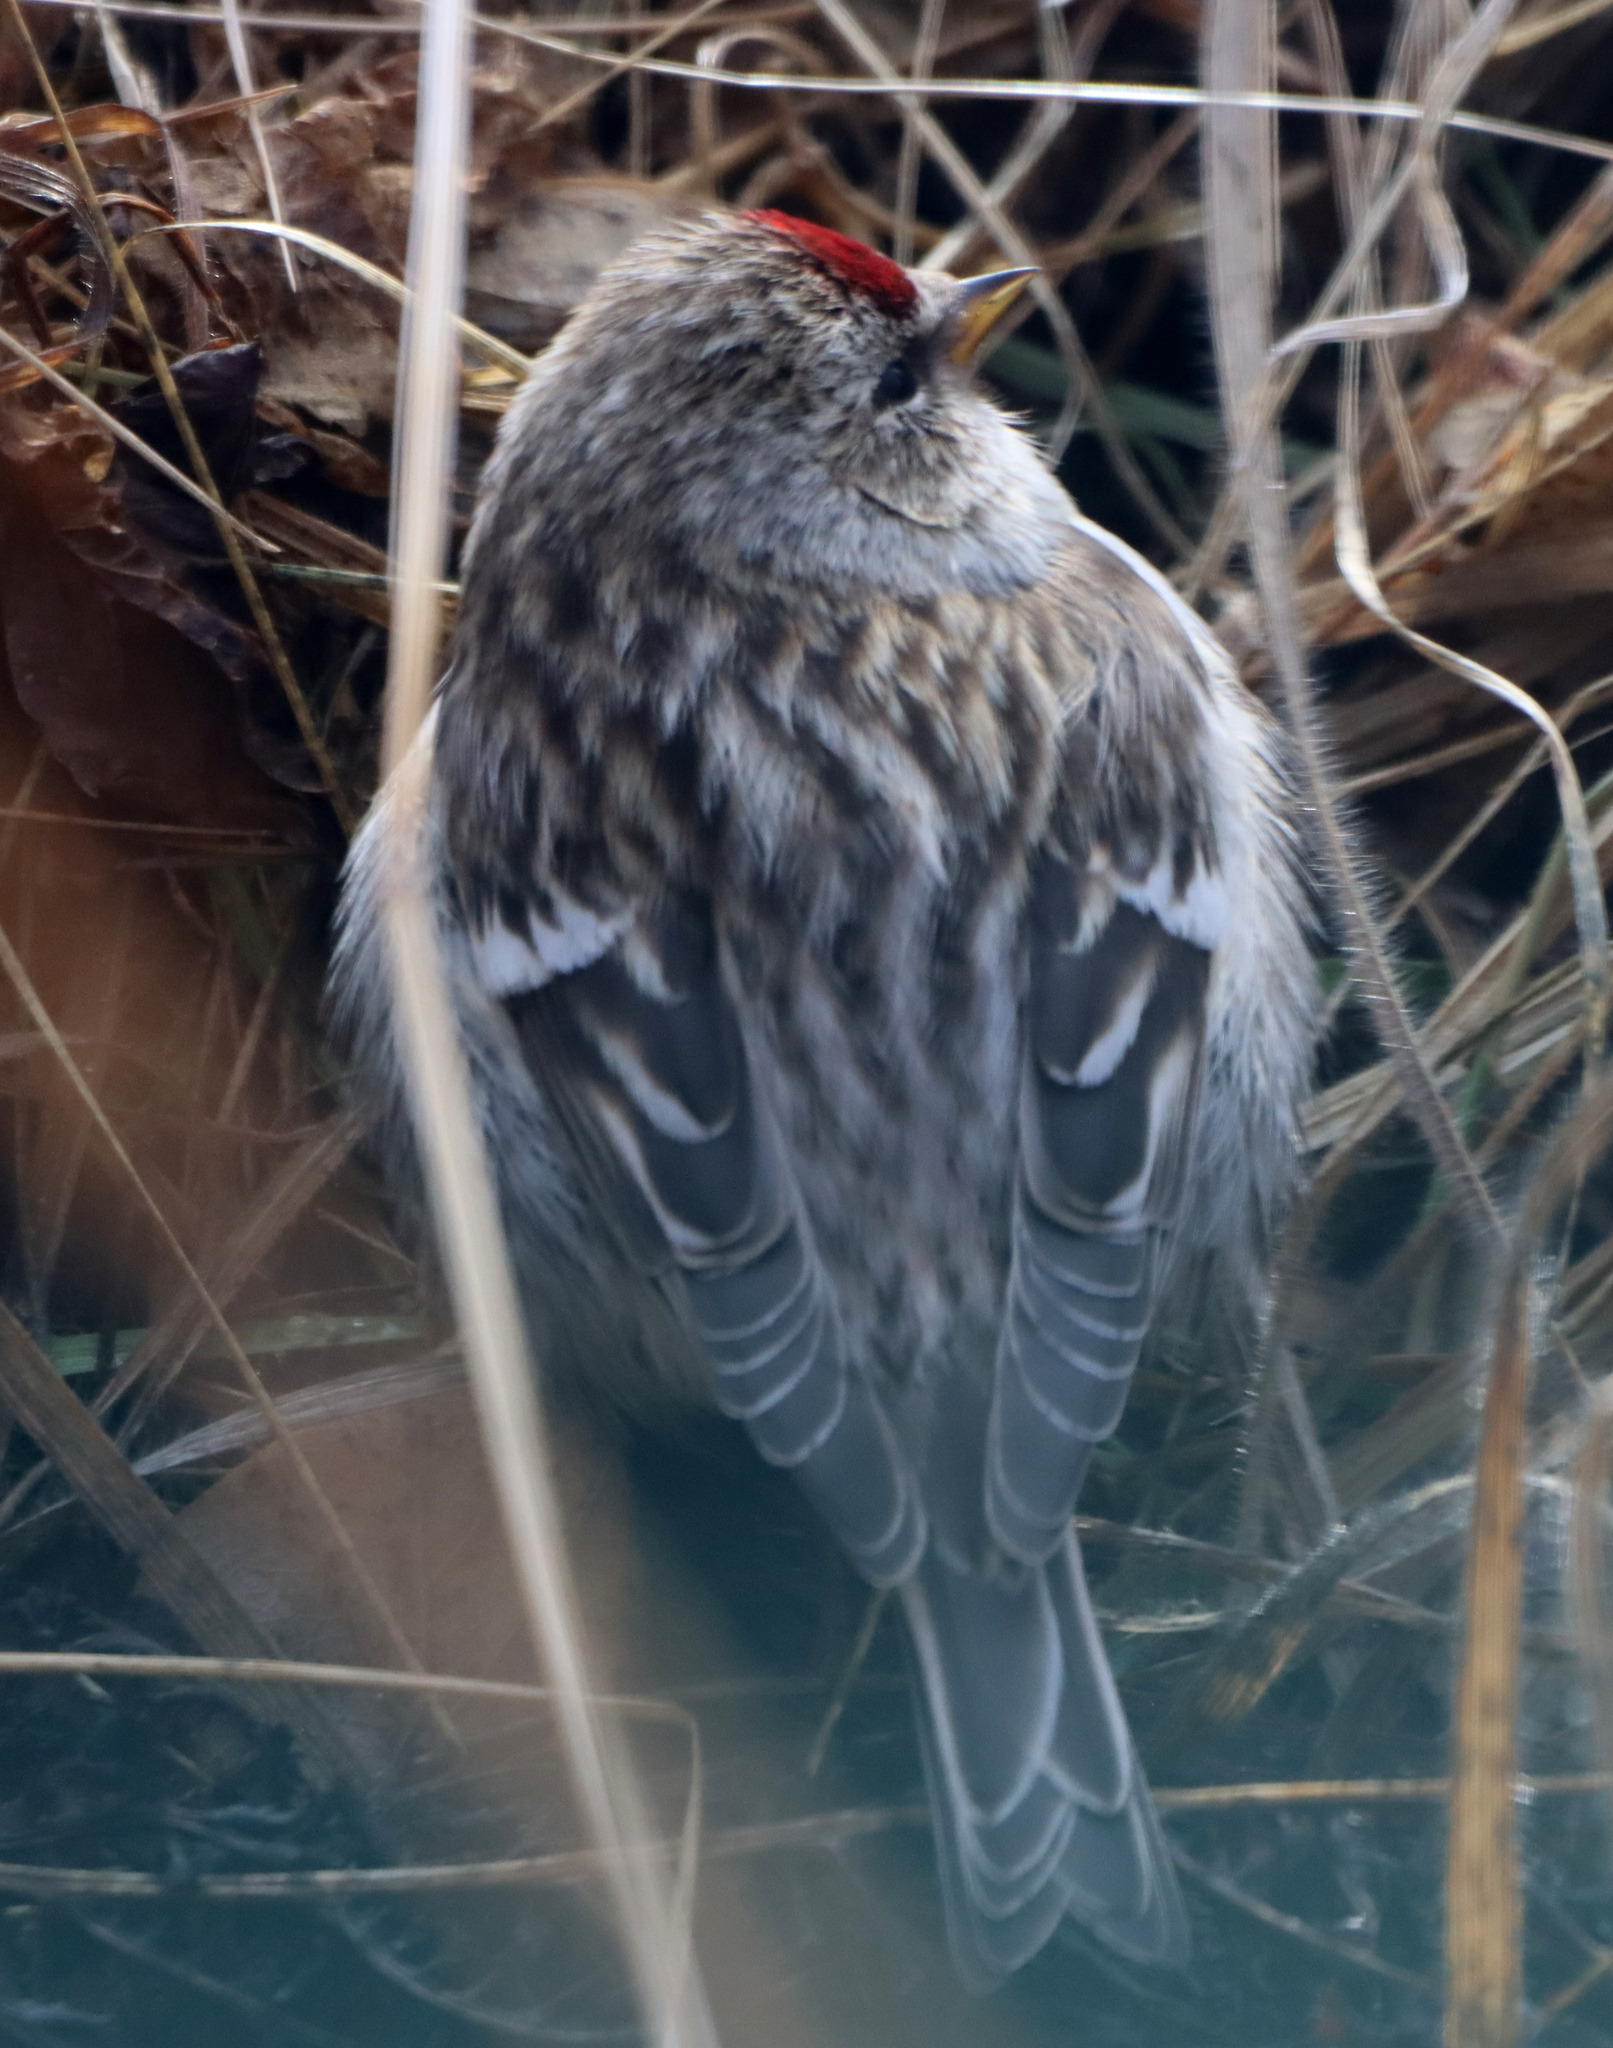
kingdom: Animalia
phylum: Chordata
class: Aves
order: Passeriformes
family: Fringillidae
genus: Acanthis
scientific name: Acanthis flammea
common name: Common redpoll
